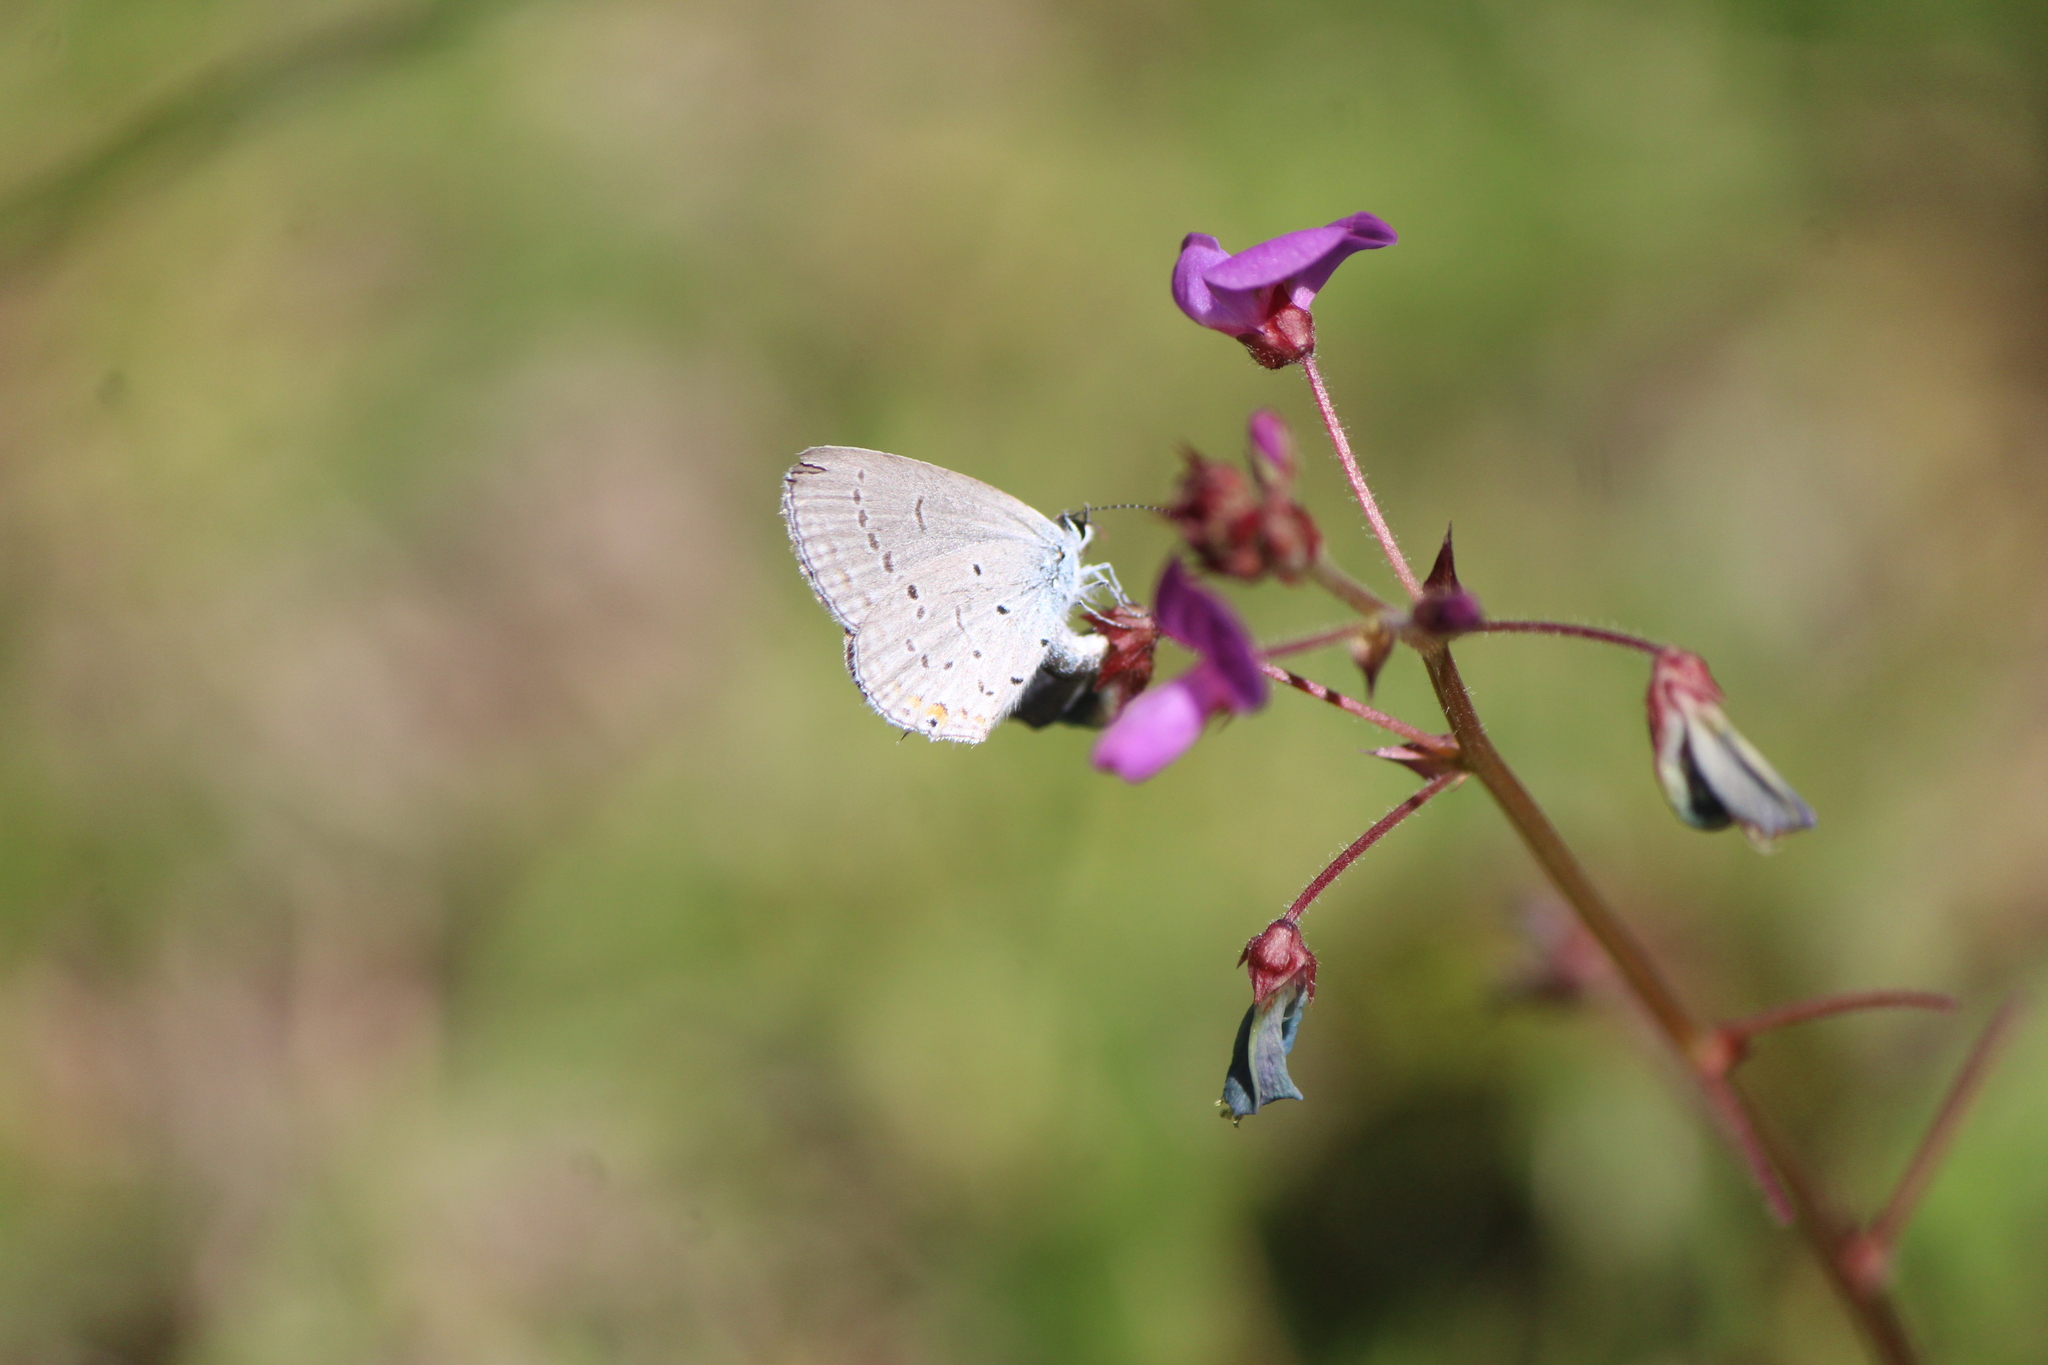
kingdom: Animalia
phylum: Arthropoda
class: Insecta
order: Lepidoptera
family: Lycaenidae
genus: Celastrina
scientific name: Celastrina ladon
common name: Spring azure
